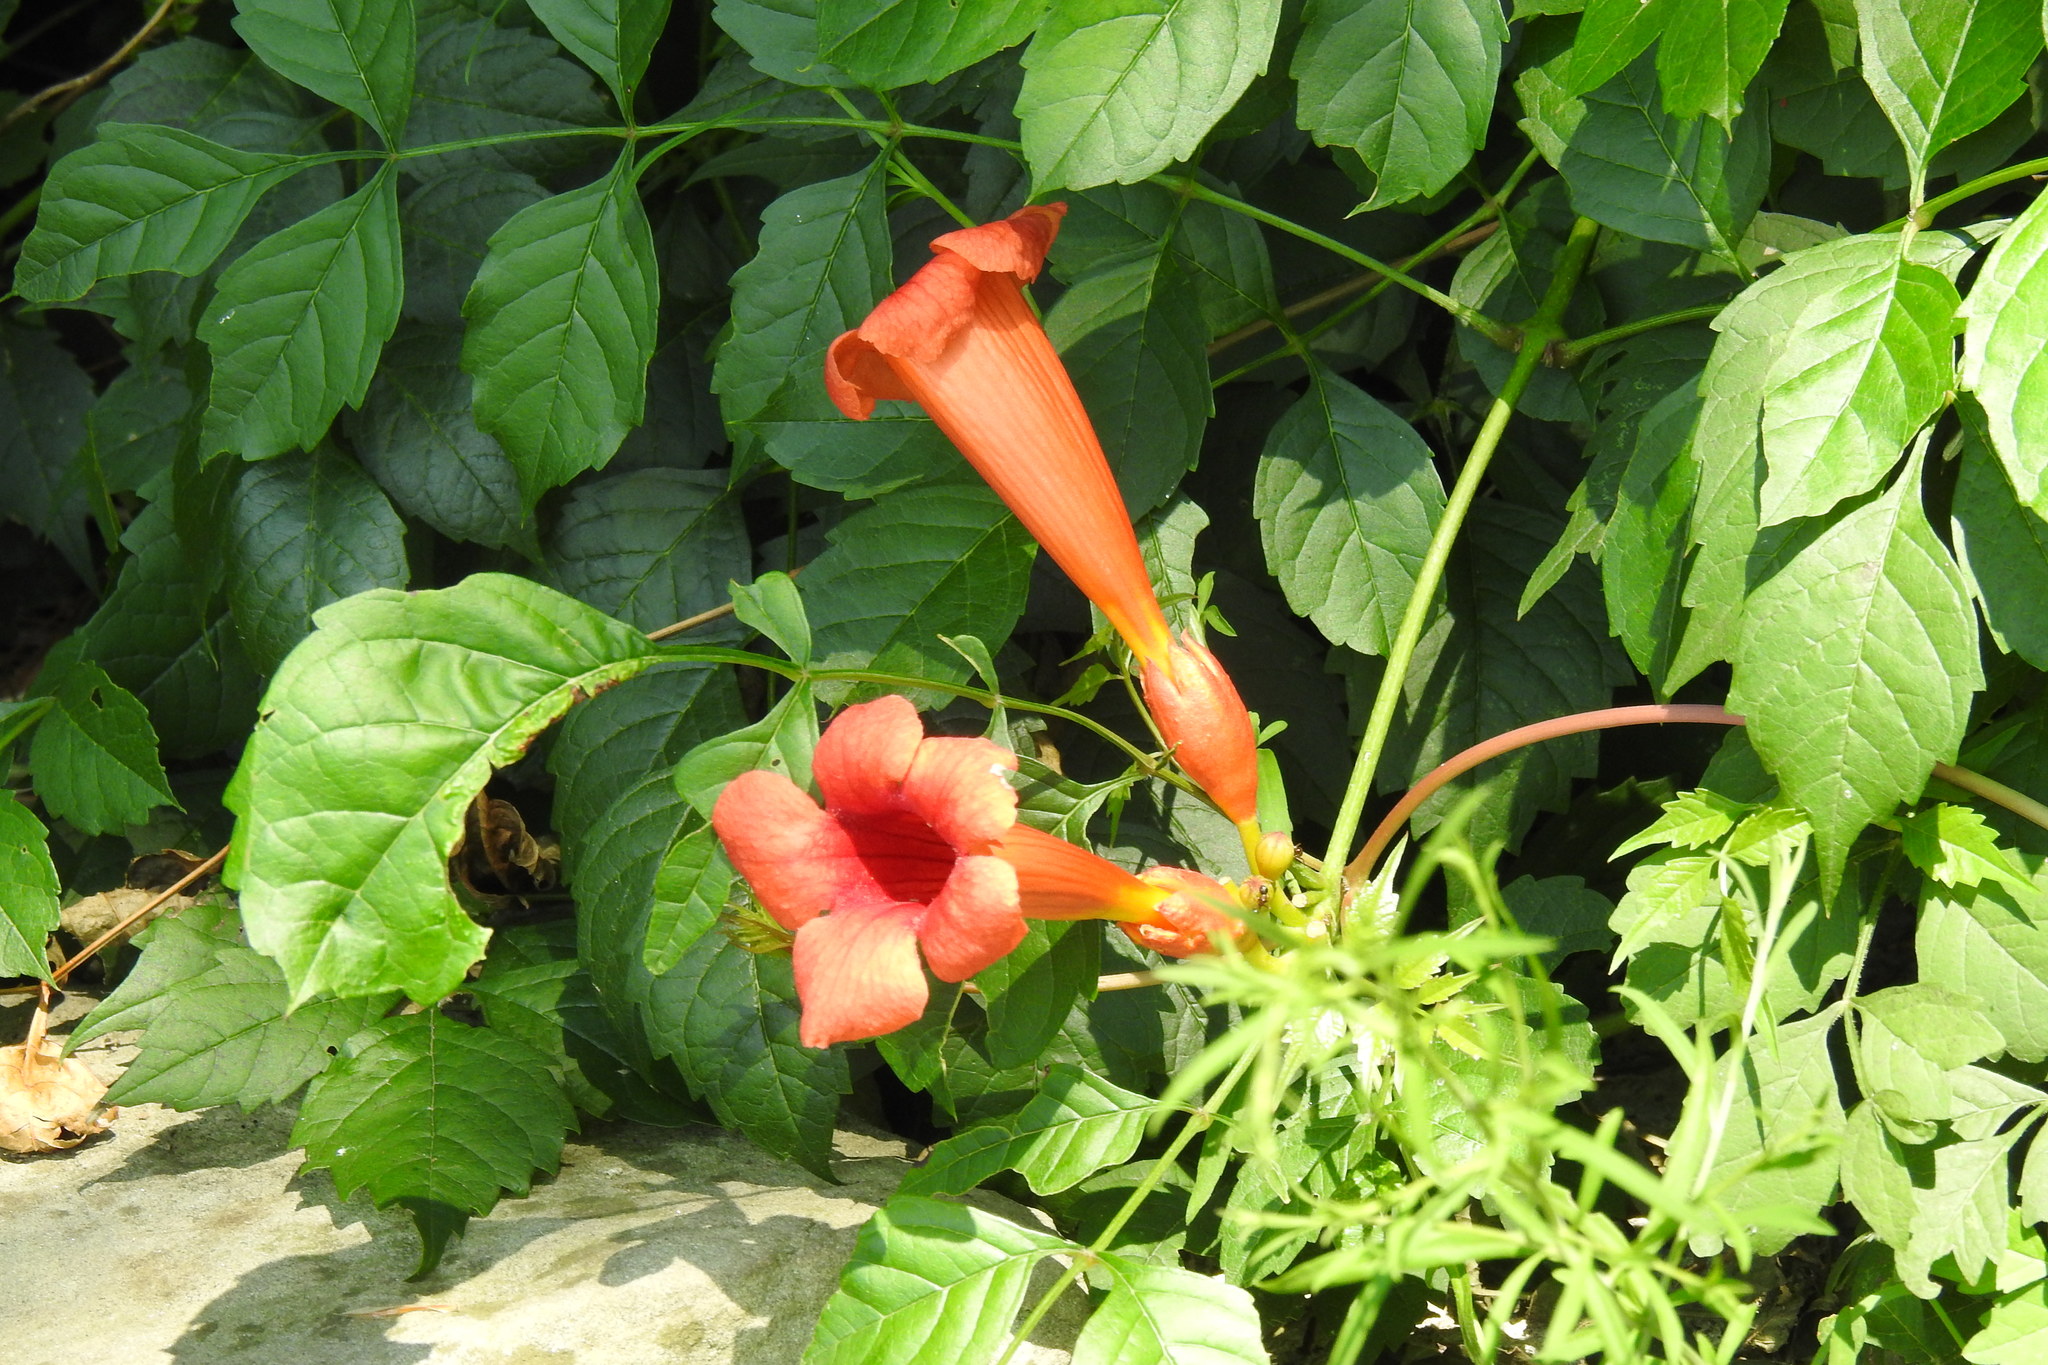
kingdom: Plantae
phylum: Tracheophyta
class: Magnoliopsida
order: Lamiales
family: Bignoniaceae
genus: Campsis
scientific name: Campsis radicans
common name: Trumpet-creeper
